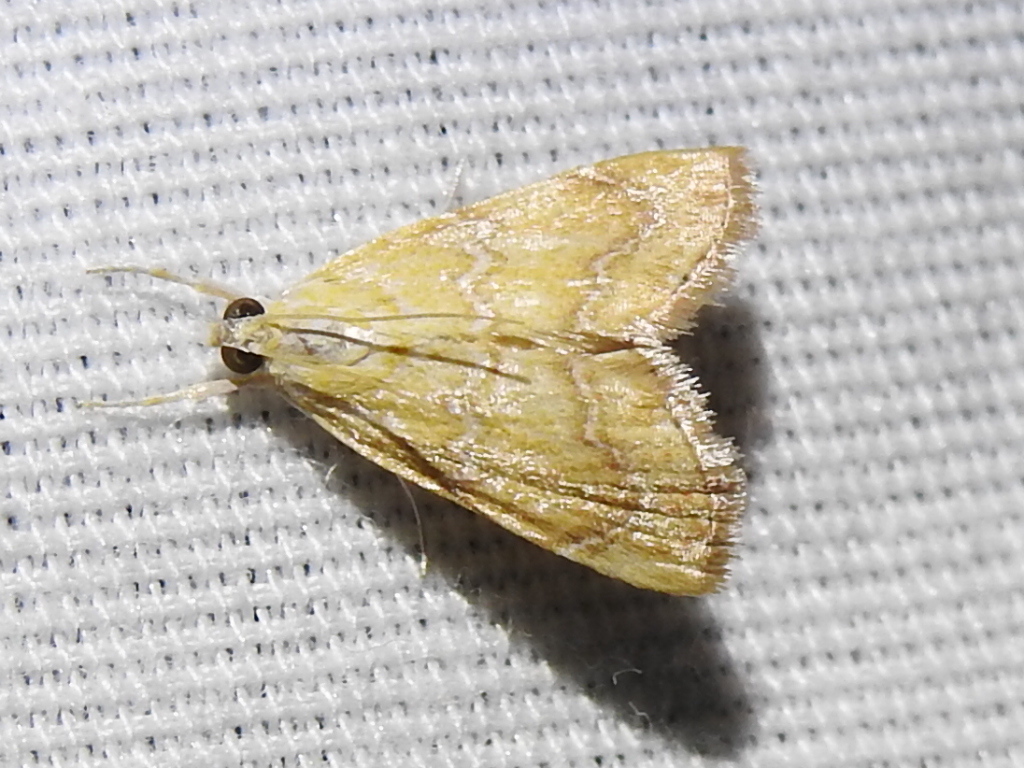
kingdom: Animalia
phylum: Arthropoda
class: Insecta
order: Lepidoptera
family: Crambidae
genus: Glaphyria
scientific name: Glaphyria sesquistrialis
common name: White-roped glaphyria
